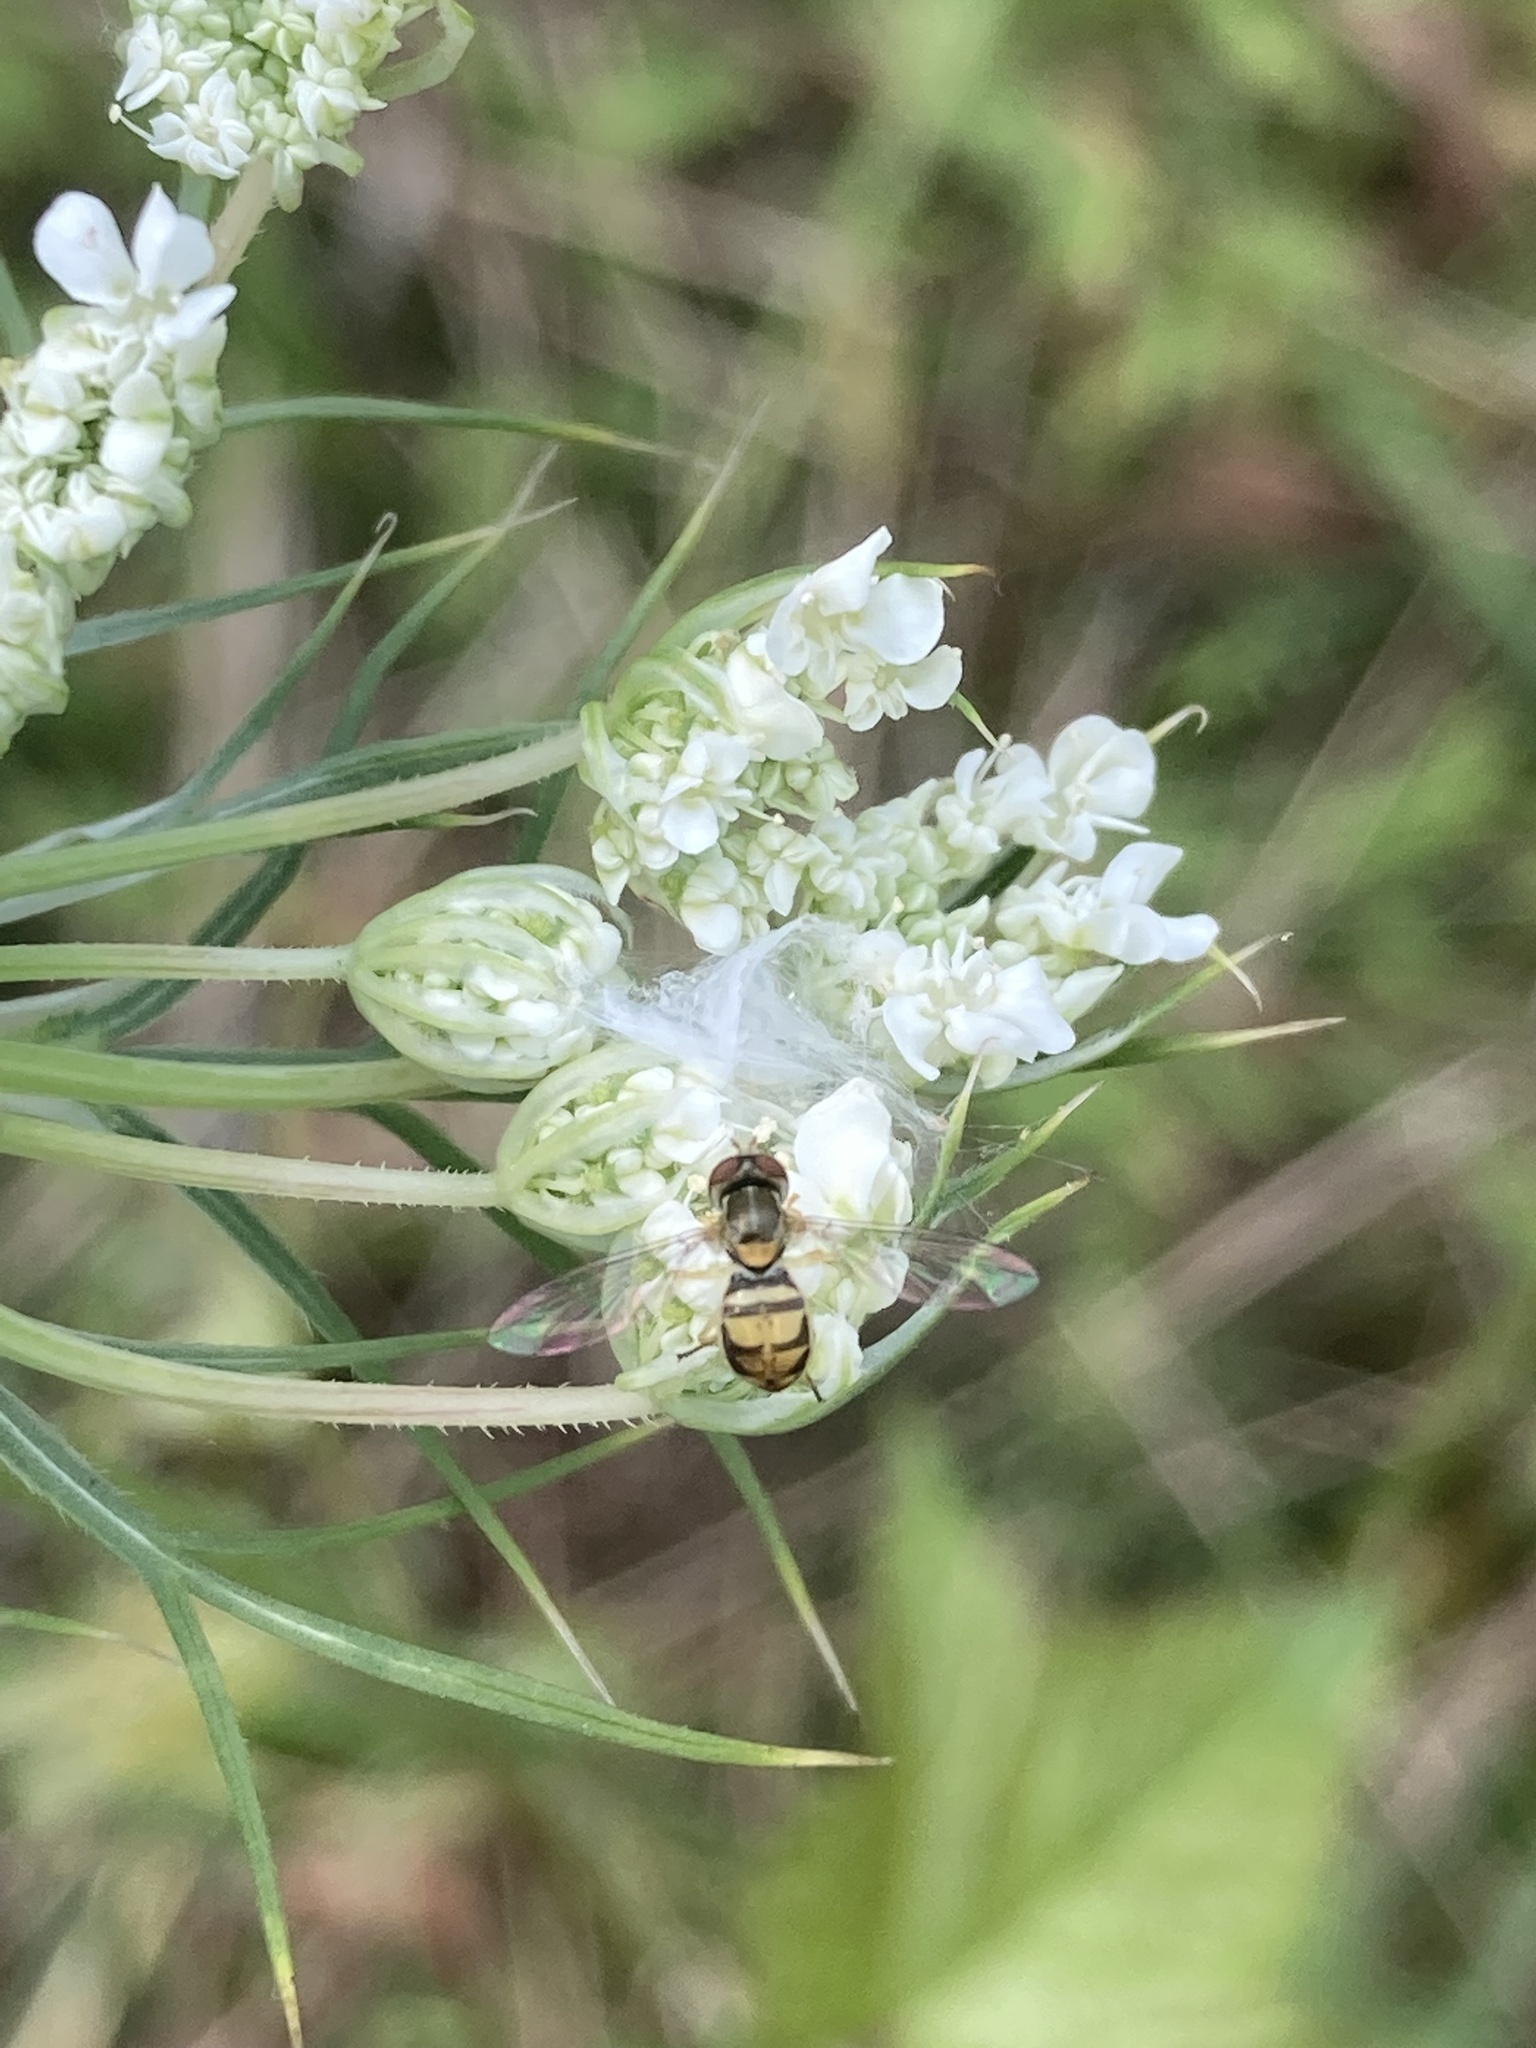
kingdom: Animalia
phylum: Arthropoda
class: Insecta
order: Diptera
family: Syrphidae
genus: Toxomerus
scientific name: Toxomerus marginatus
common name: Syrphid fly
